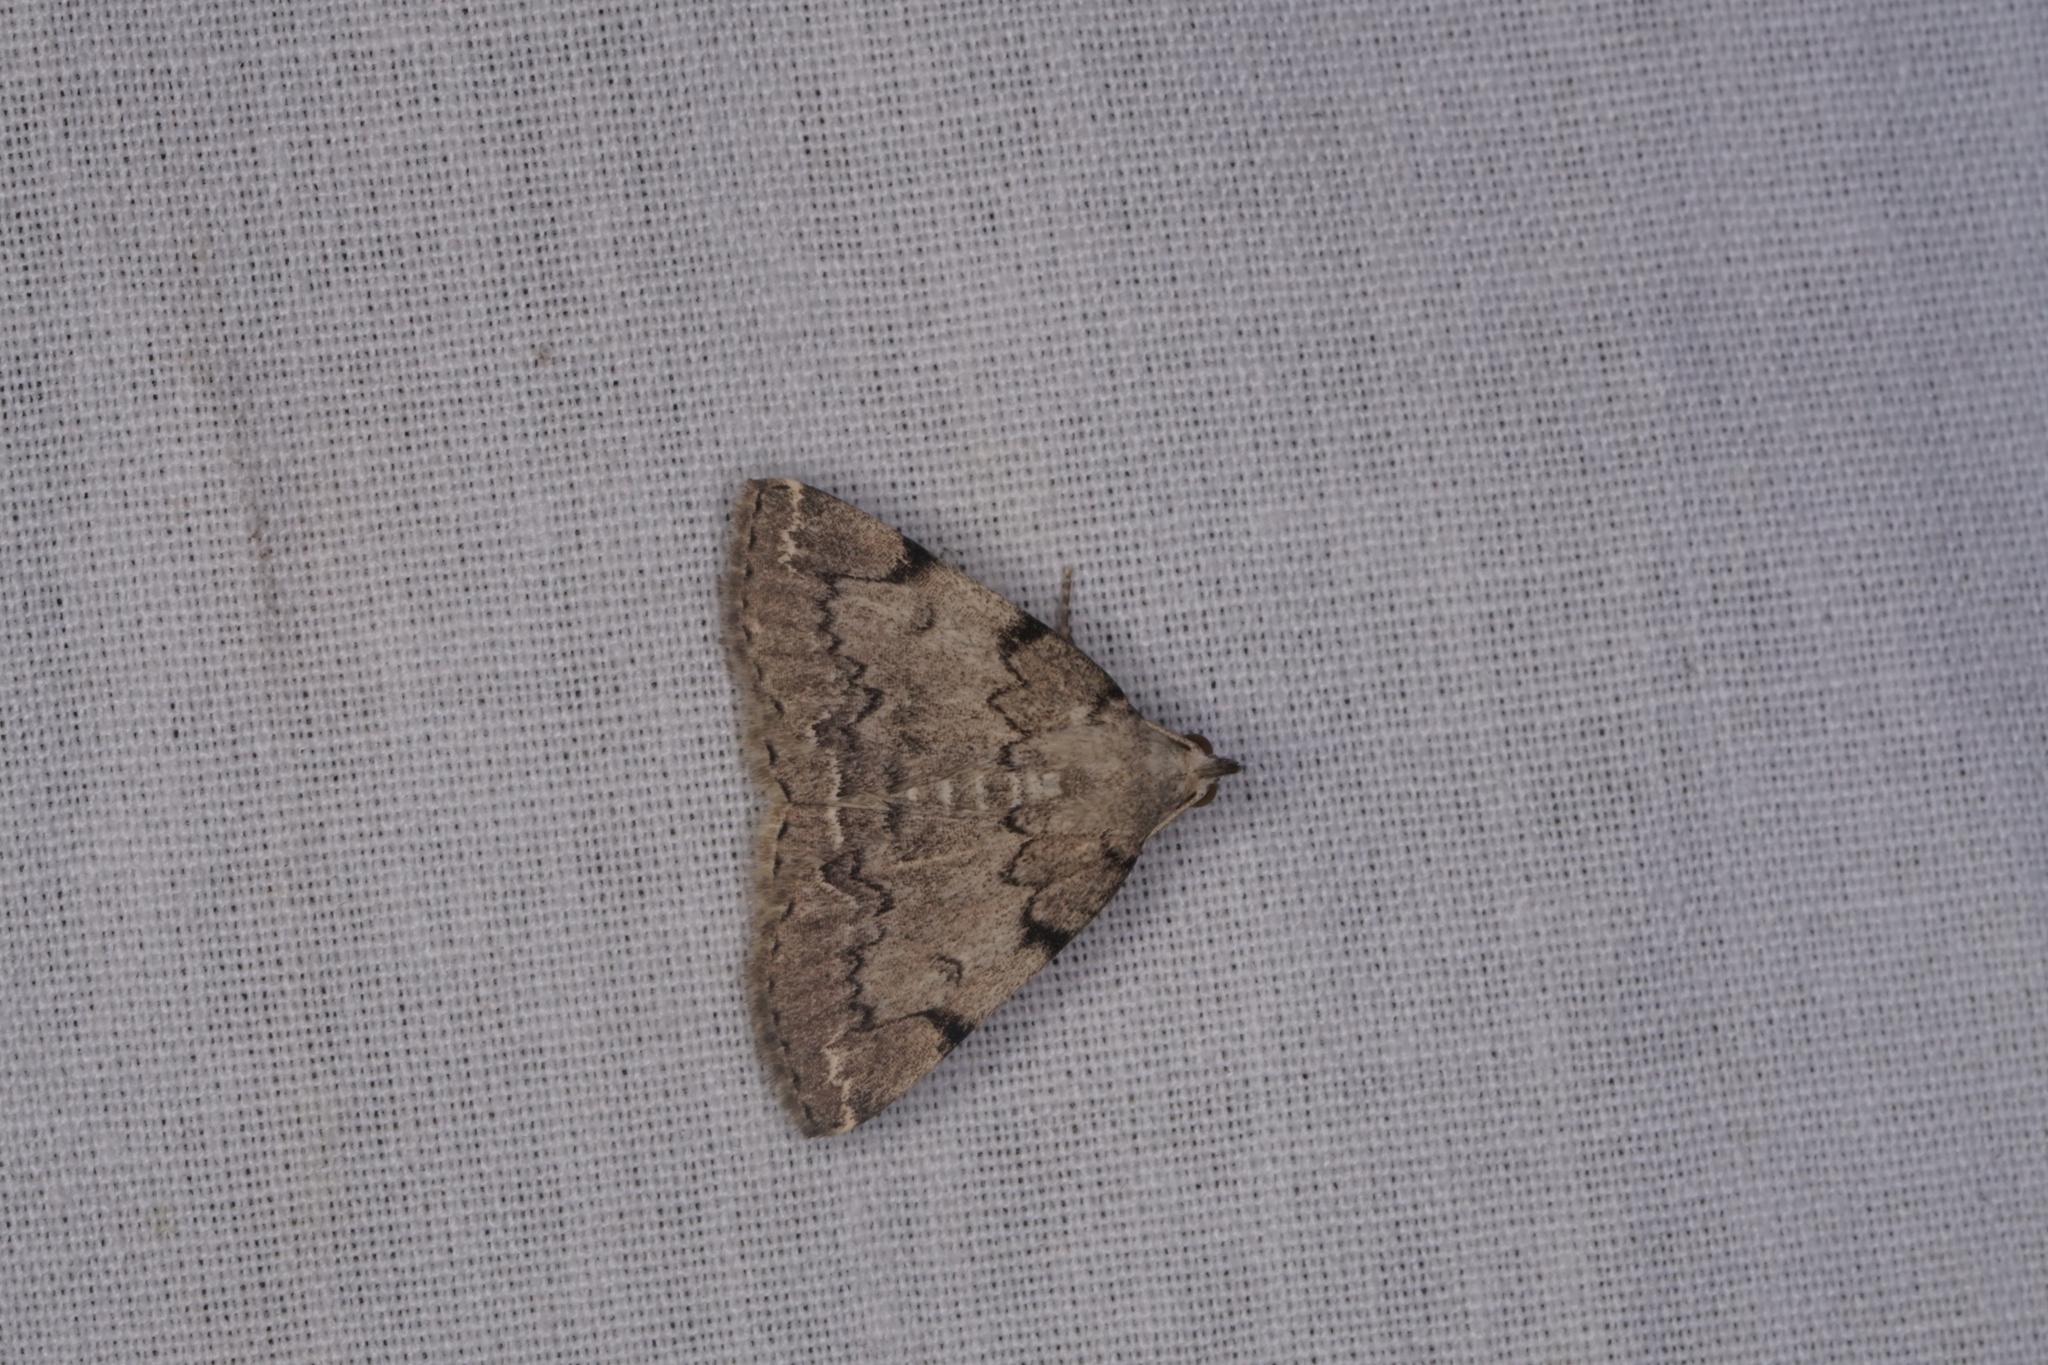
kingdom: Animalia
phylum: Arthropoda
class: Insecta
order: Lepidoptera
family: Erebidae
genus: Zanclognatha
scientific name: Zanclognatha theralis
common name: Flagged fan-foot
